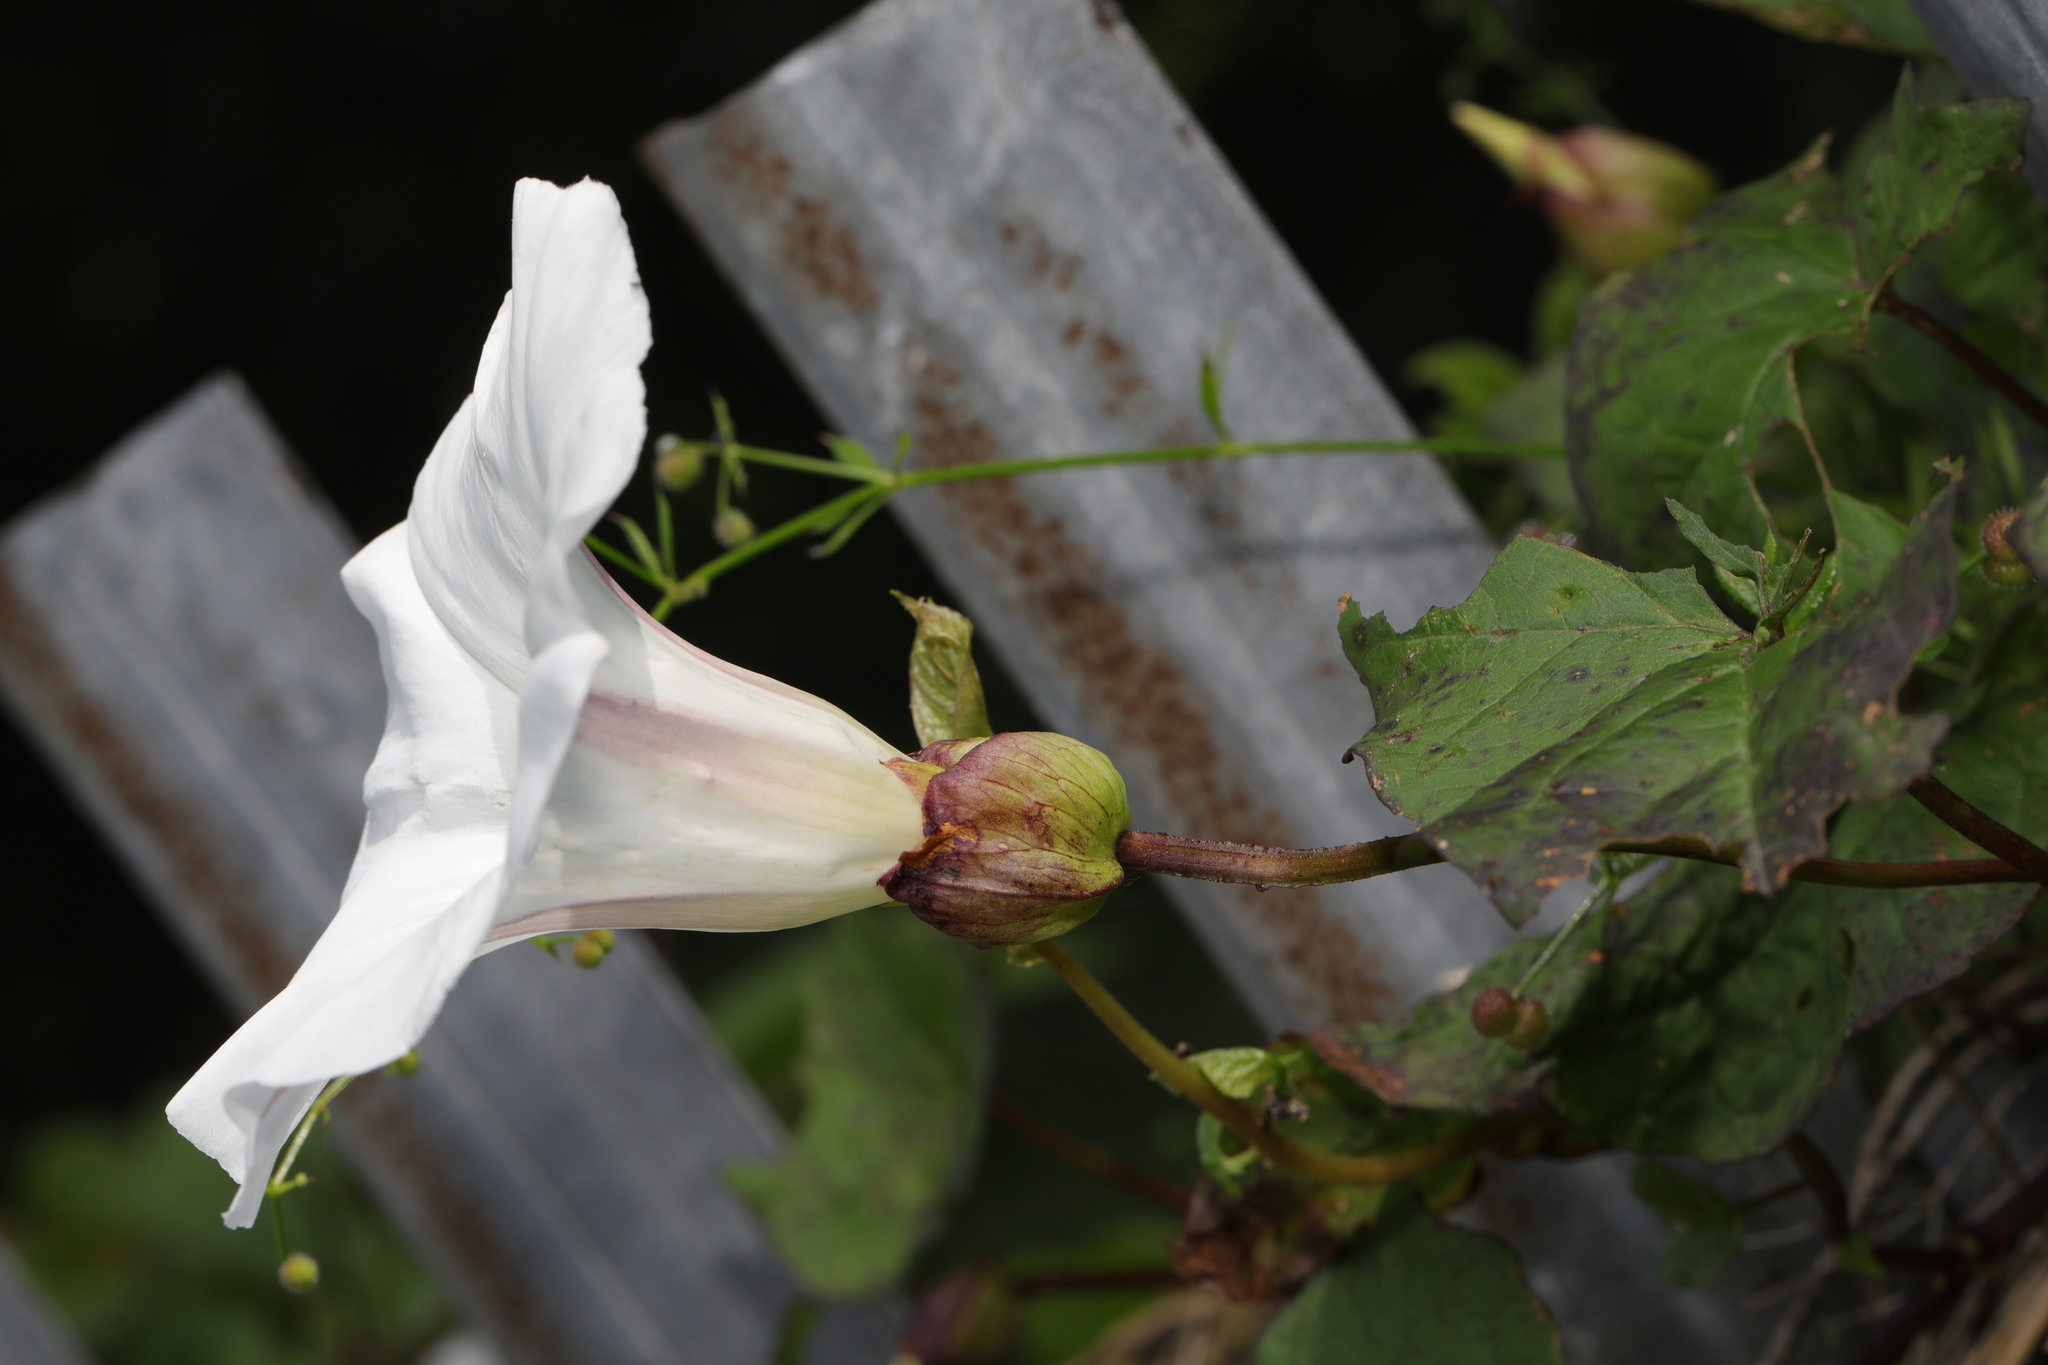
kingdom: Plantae
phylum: Tracheophyta
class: Magnoliopsida
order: Solanales
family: Convolvulaceae
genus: Calystegia
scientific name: Calystegia silvatica
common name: Large bindweed
